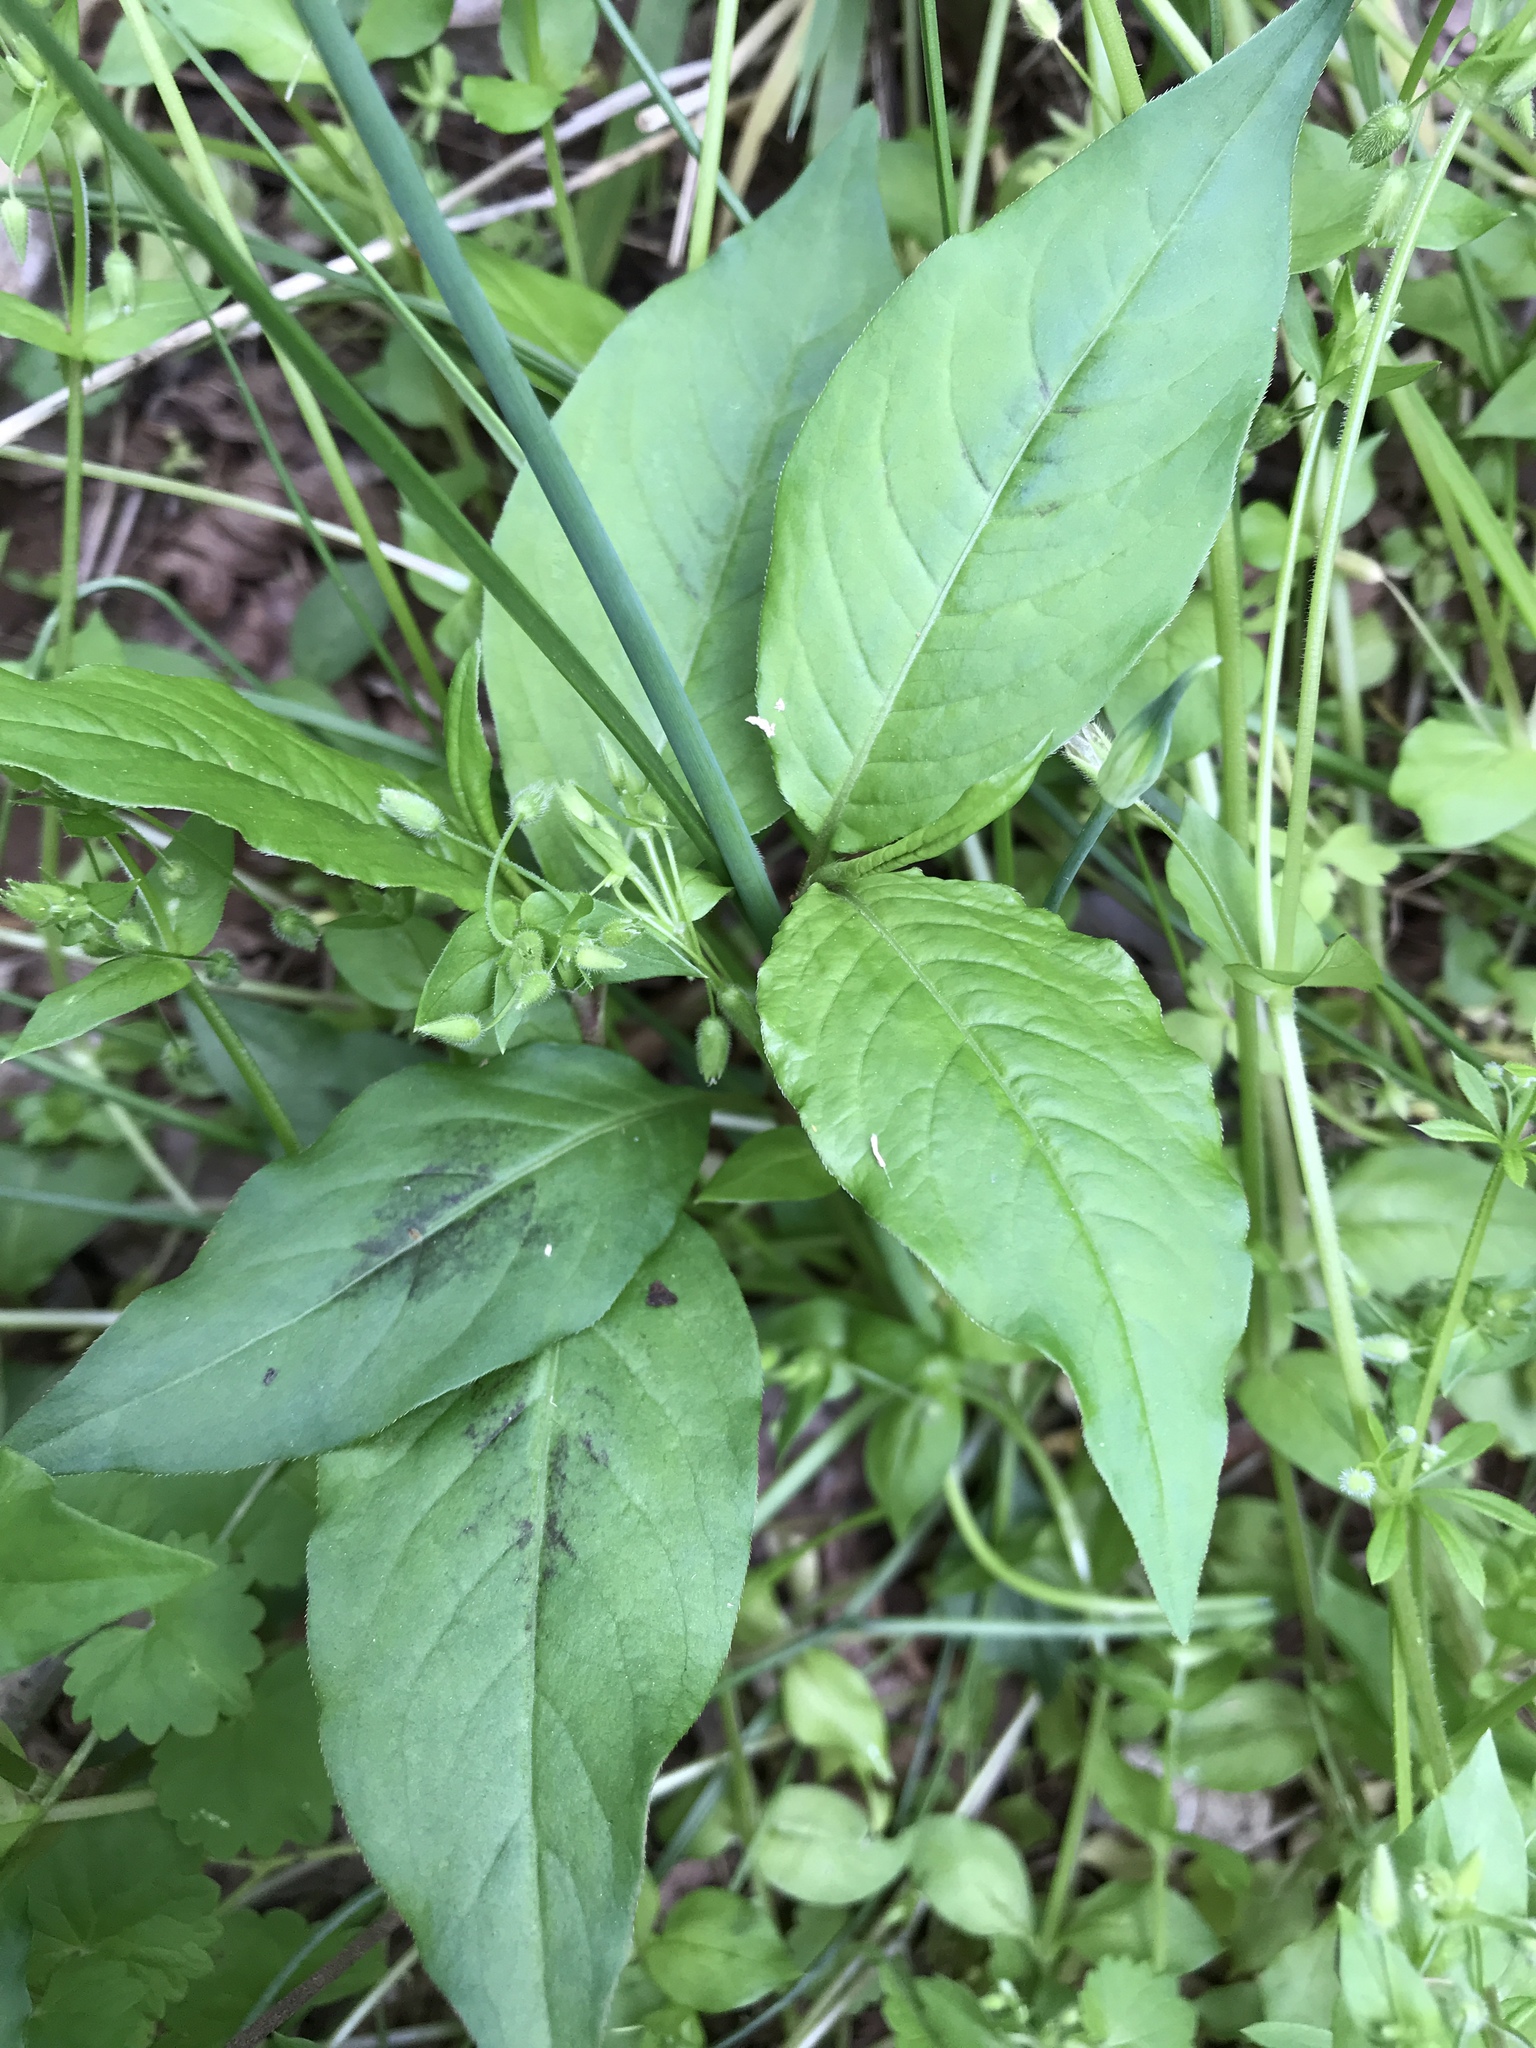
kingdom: Plantae
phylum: Tracheophyta
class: Magnoliopsida
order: Caryophyllales
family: Polygonaceae
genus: Persicaria
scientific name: Persicaria virginiana
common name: Jumpseed
